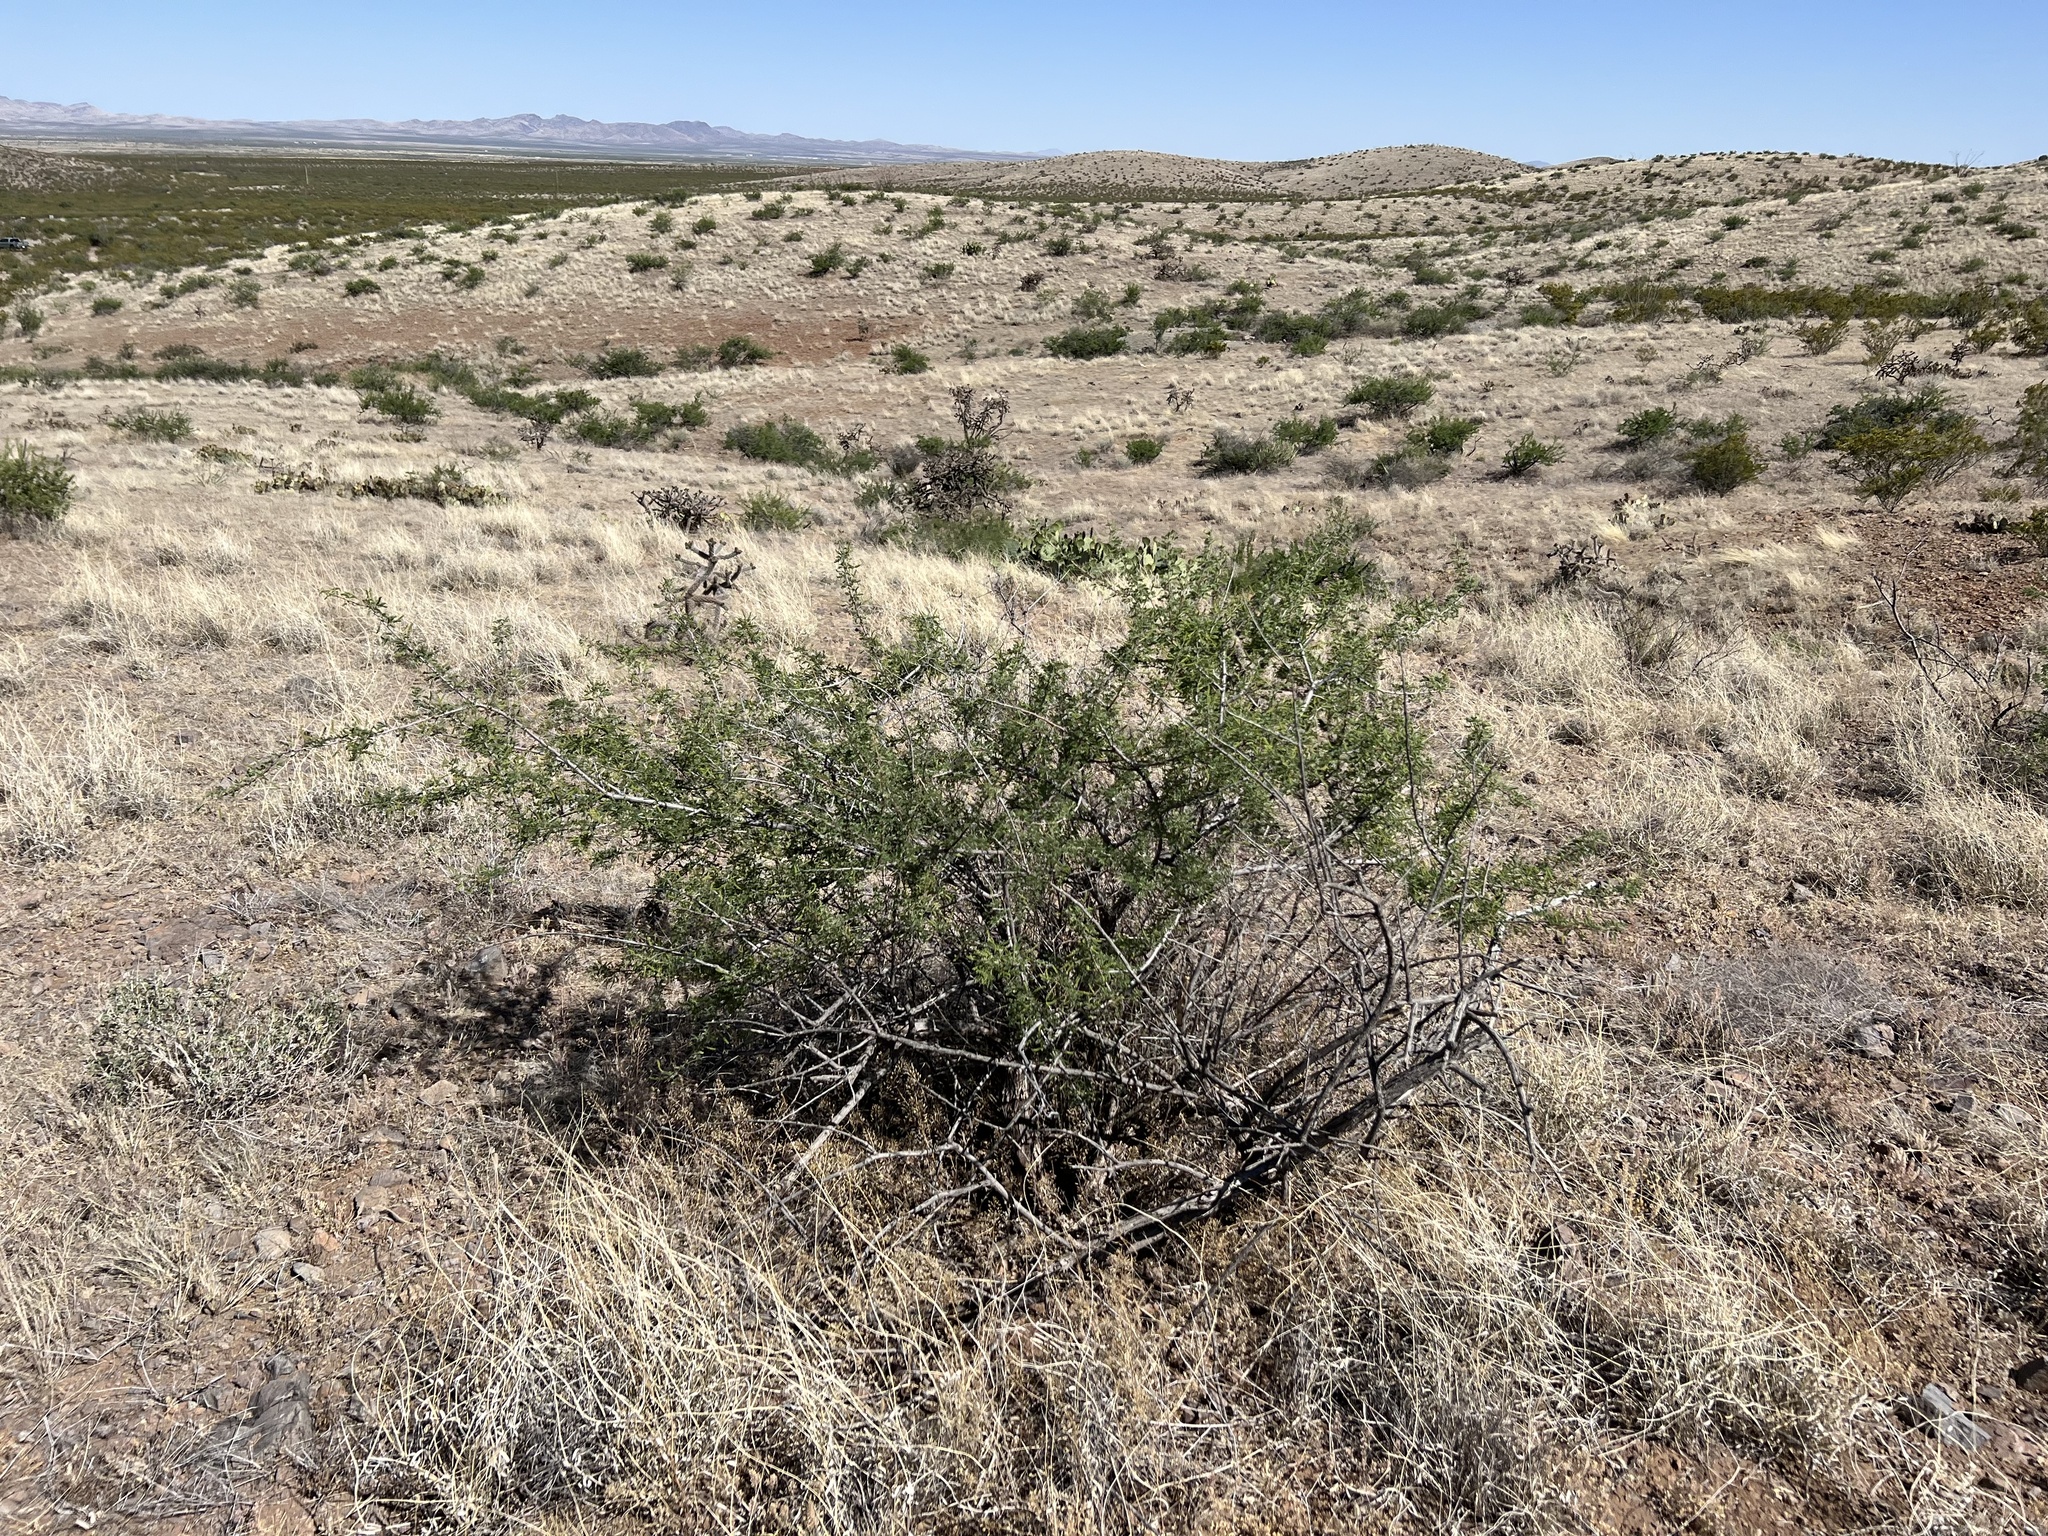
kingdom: Plantae
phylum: Tracheophyta
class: Magnoliopsida
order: Fabales
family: Fabaceae
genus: Senegalia
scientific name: Senegalia greggii
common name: Texas-mimosa
